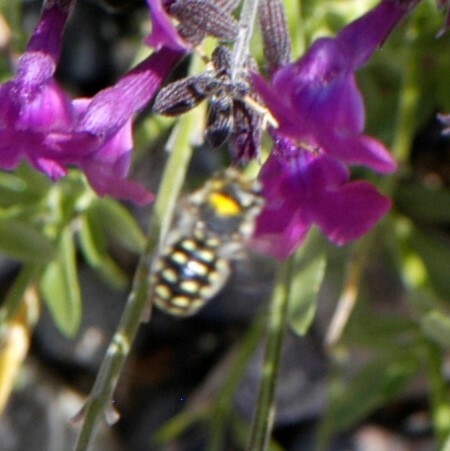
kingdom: Animalia
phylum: Arthropoda
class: Insecta
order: Hymenoptera
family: Megachilidae
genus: Anthidium
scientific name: Anthidium maculosum
